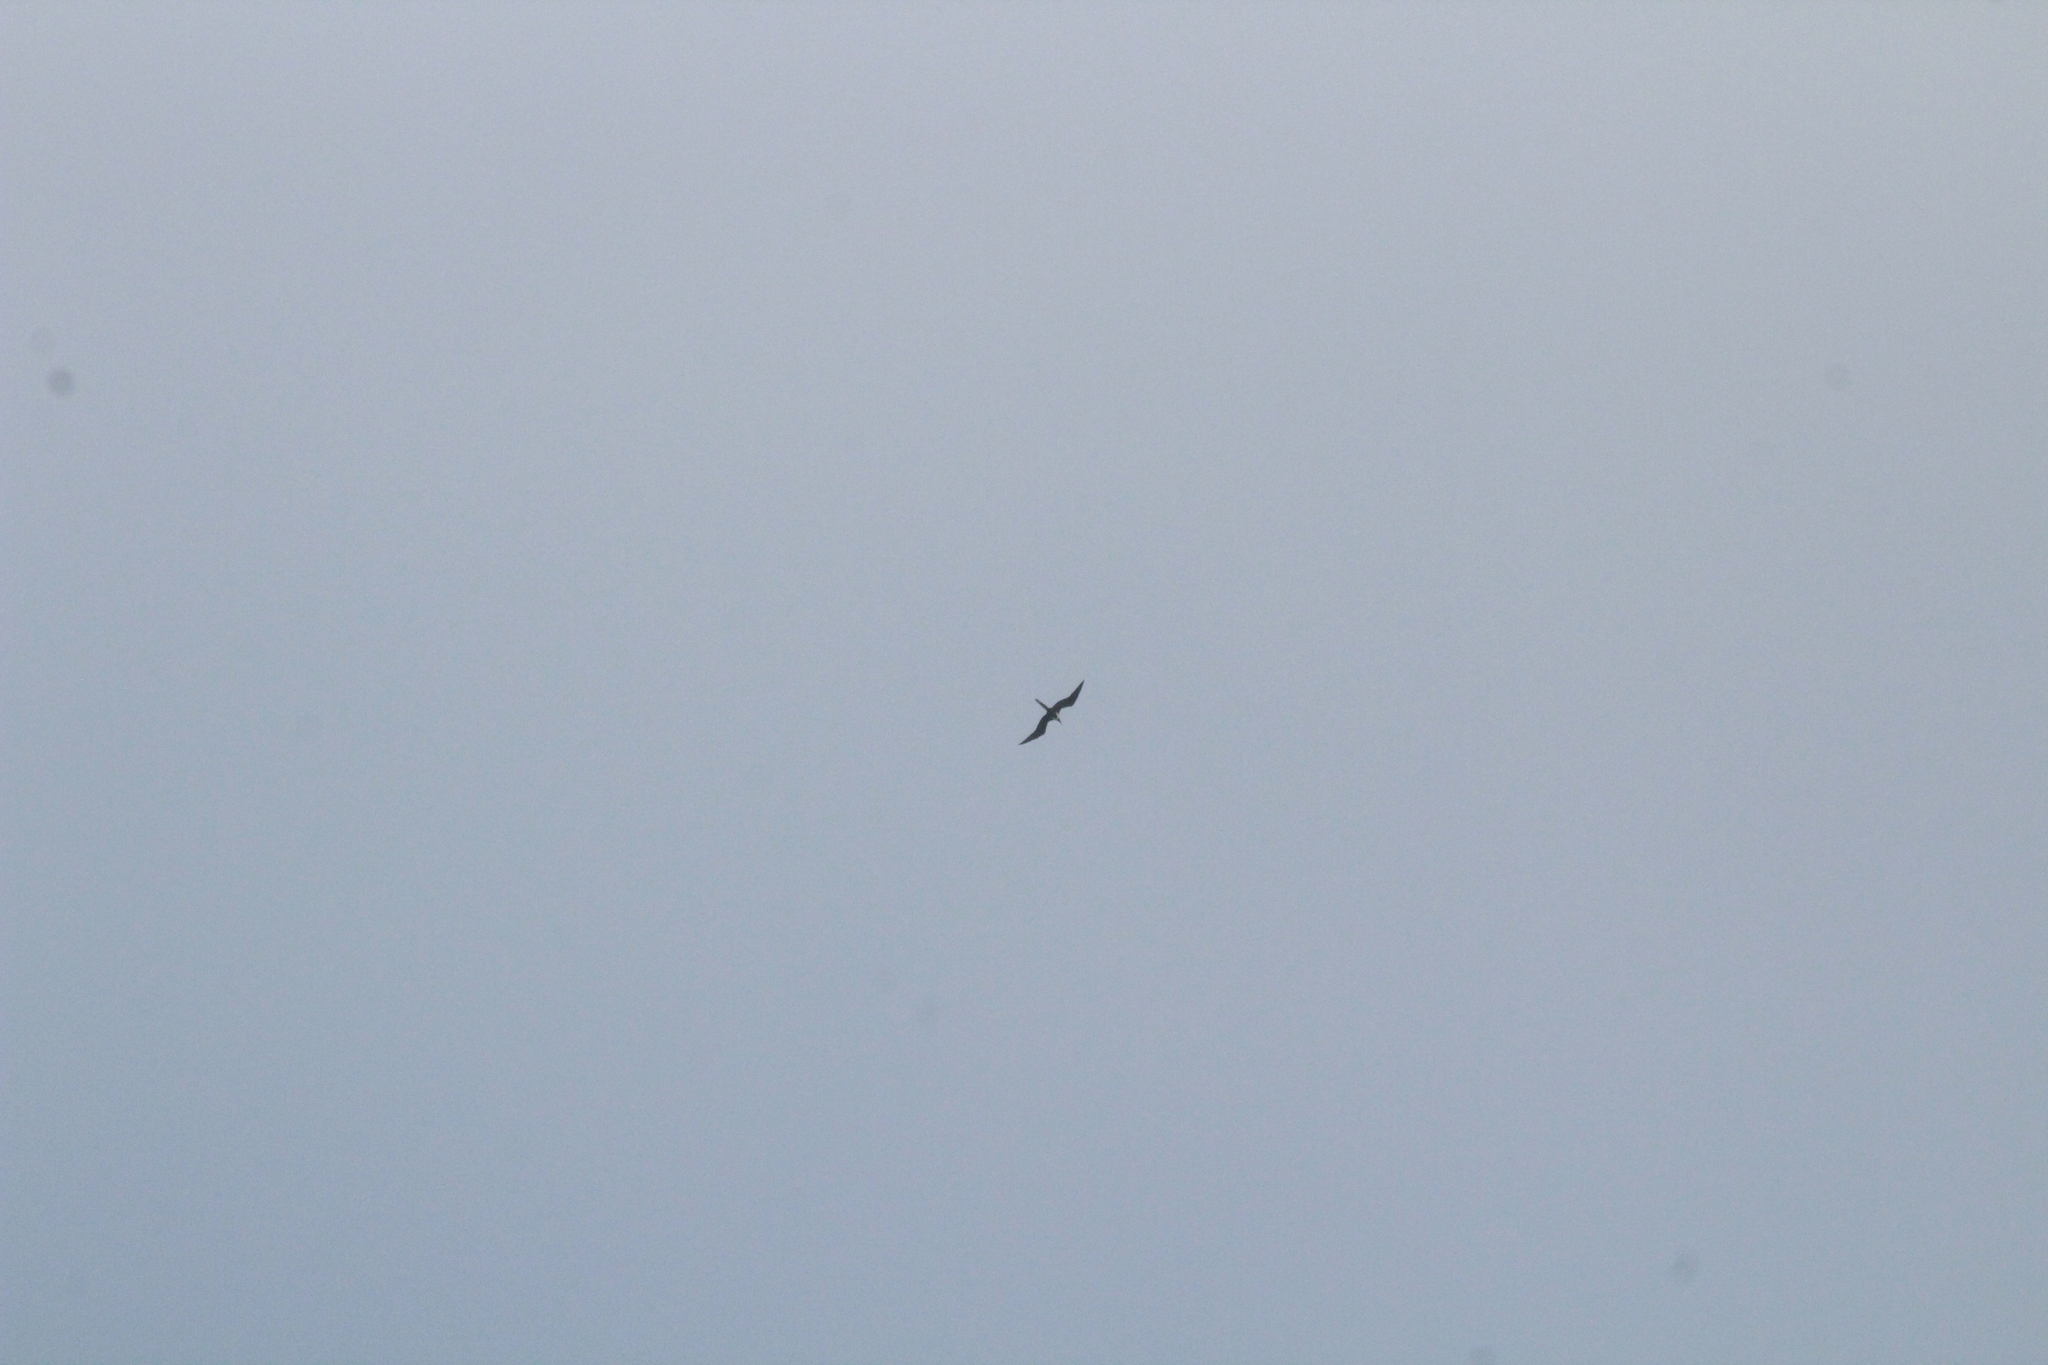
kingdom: Animalia
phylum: Chordata
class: Aves
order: Suliformes
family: Fregatidae
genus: Fregata
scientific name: Fregata magnificens
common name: Magnificent frigatebird
